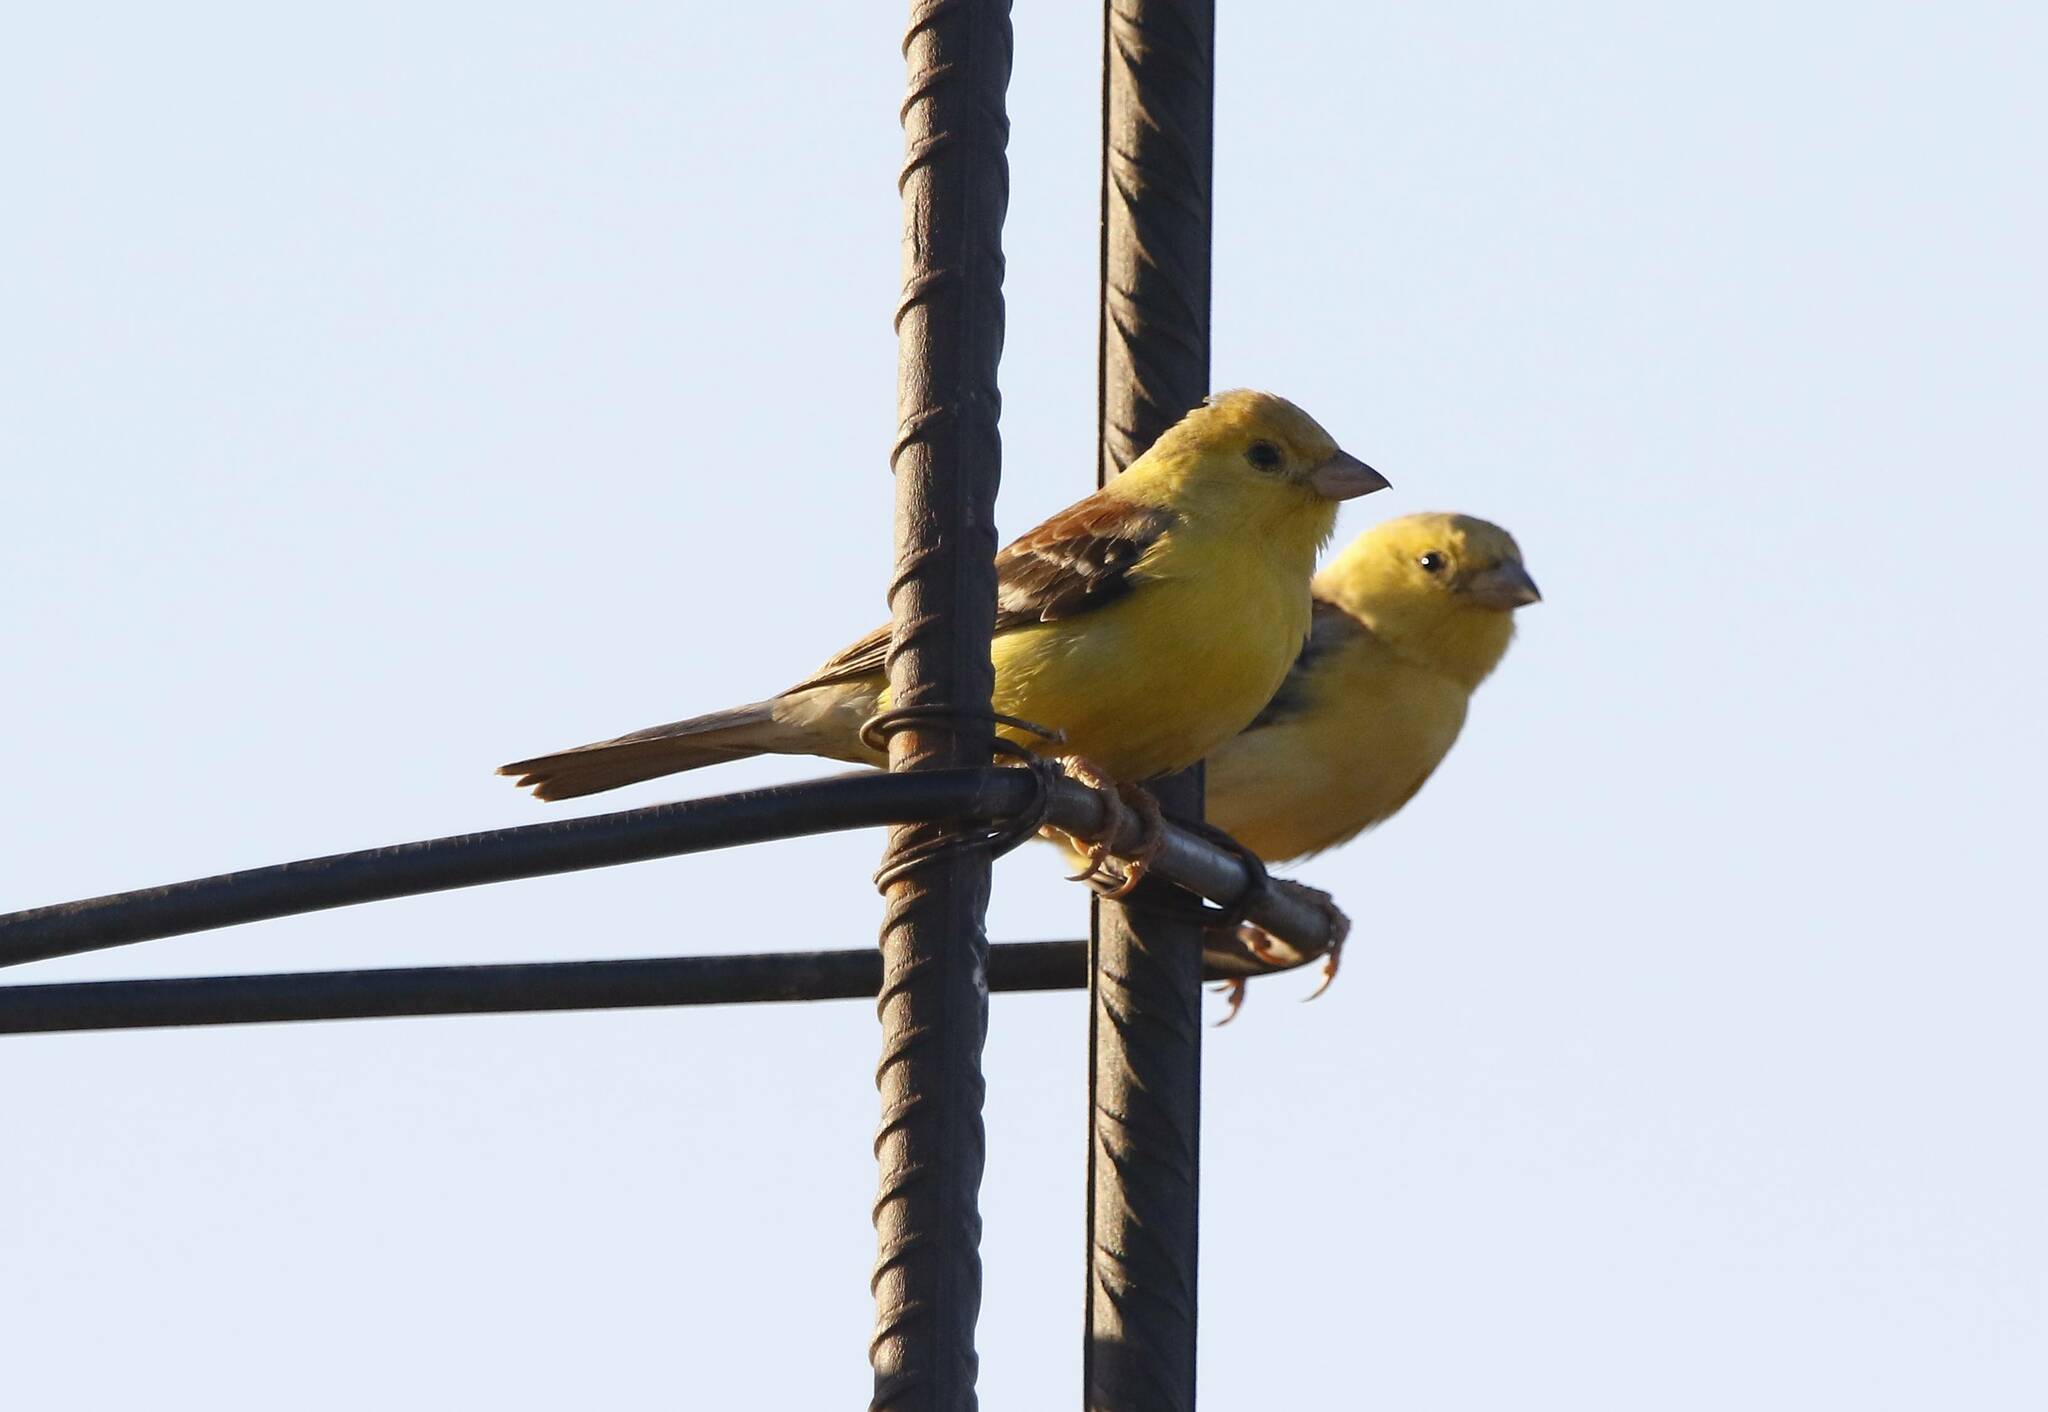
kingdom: Animalia
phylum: Chordata
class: Aves
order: Passeriformes
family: Passeridae
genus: Passer
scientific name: Passer luteus
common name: Sudan golden sparrow
